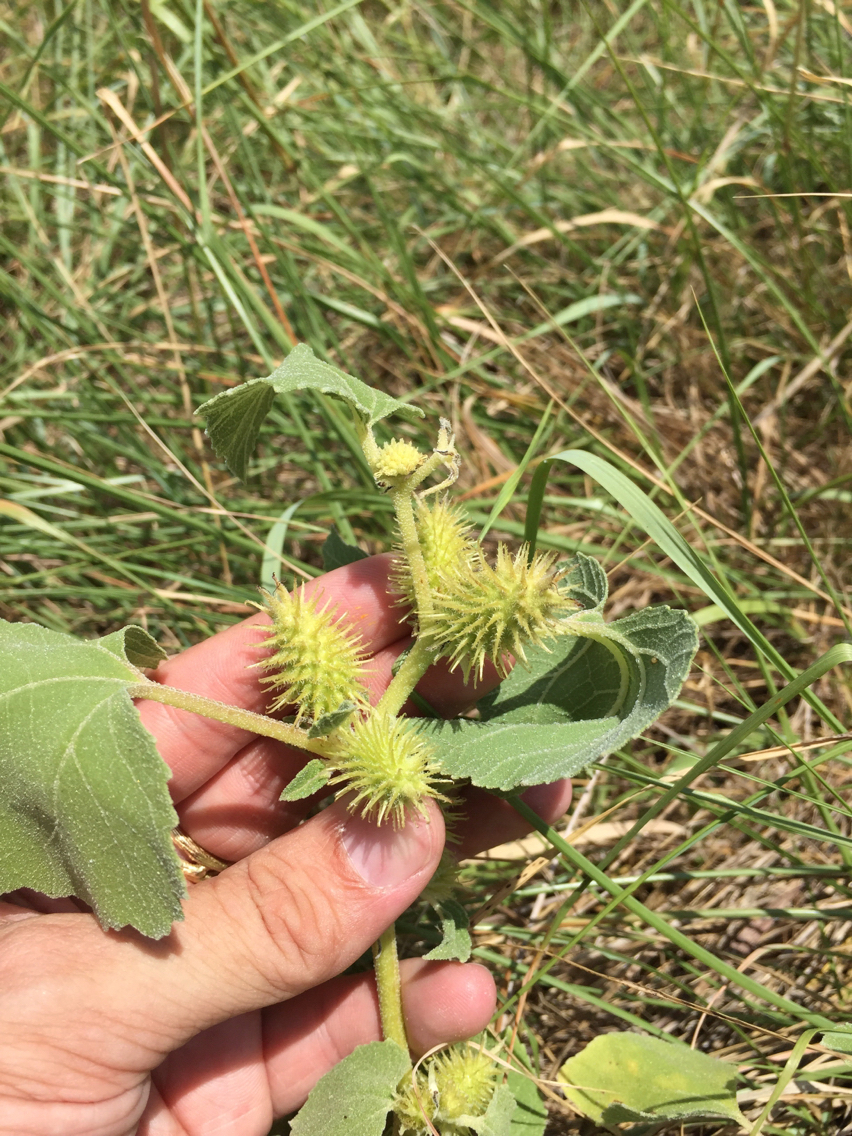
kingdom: Plantae
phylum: Tracheophyta
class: Magnoliopsida
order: Asterales
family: Asteraceae
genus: Xanthium
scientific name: Xanthium strumarium
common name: Rough cocklebur
